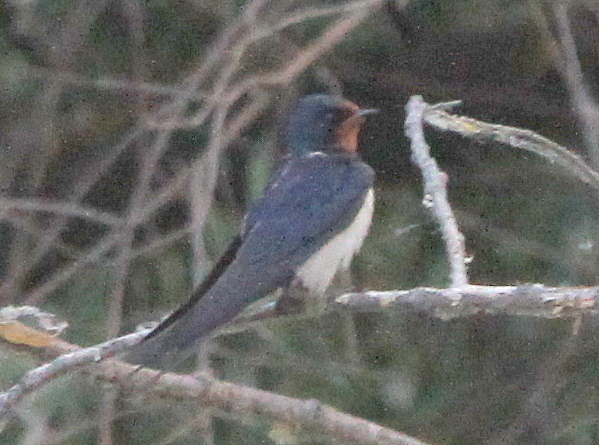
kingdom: Animalia
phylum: Chordata
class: Aves
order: Passeriformes
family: Hirundinidae
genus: Hirundo
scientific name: Hirundo rustica
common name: Barn swallow
